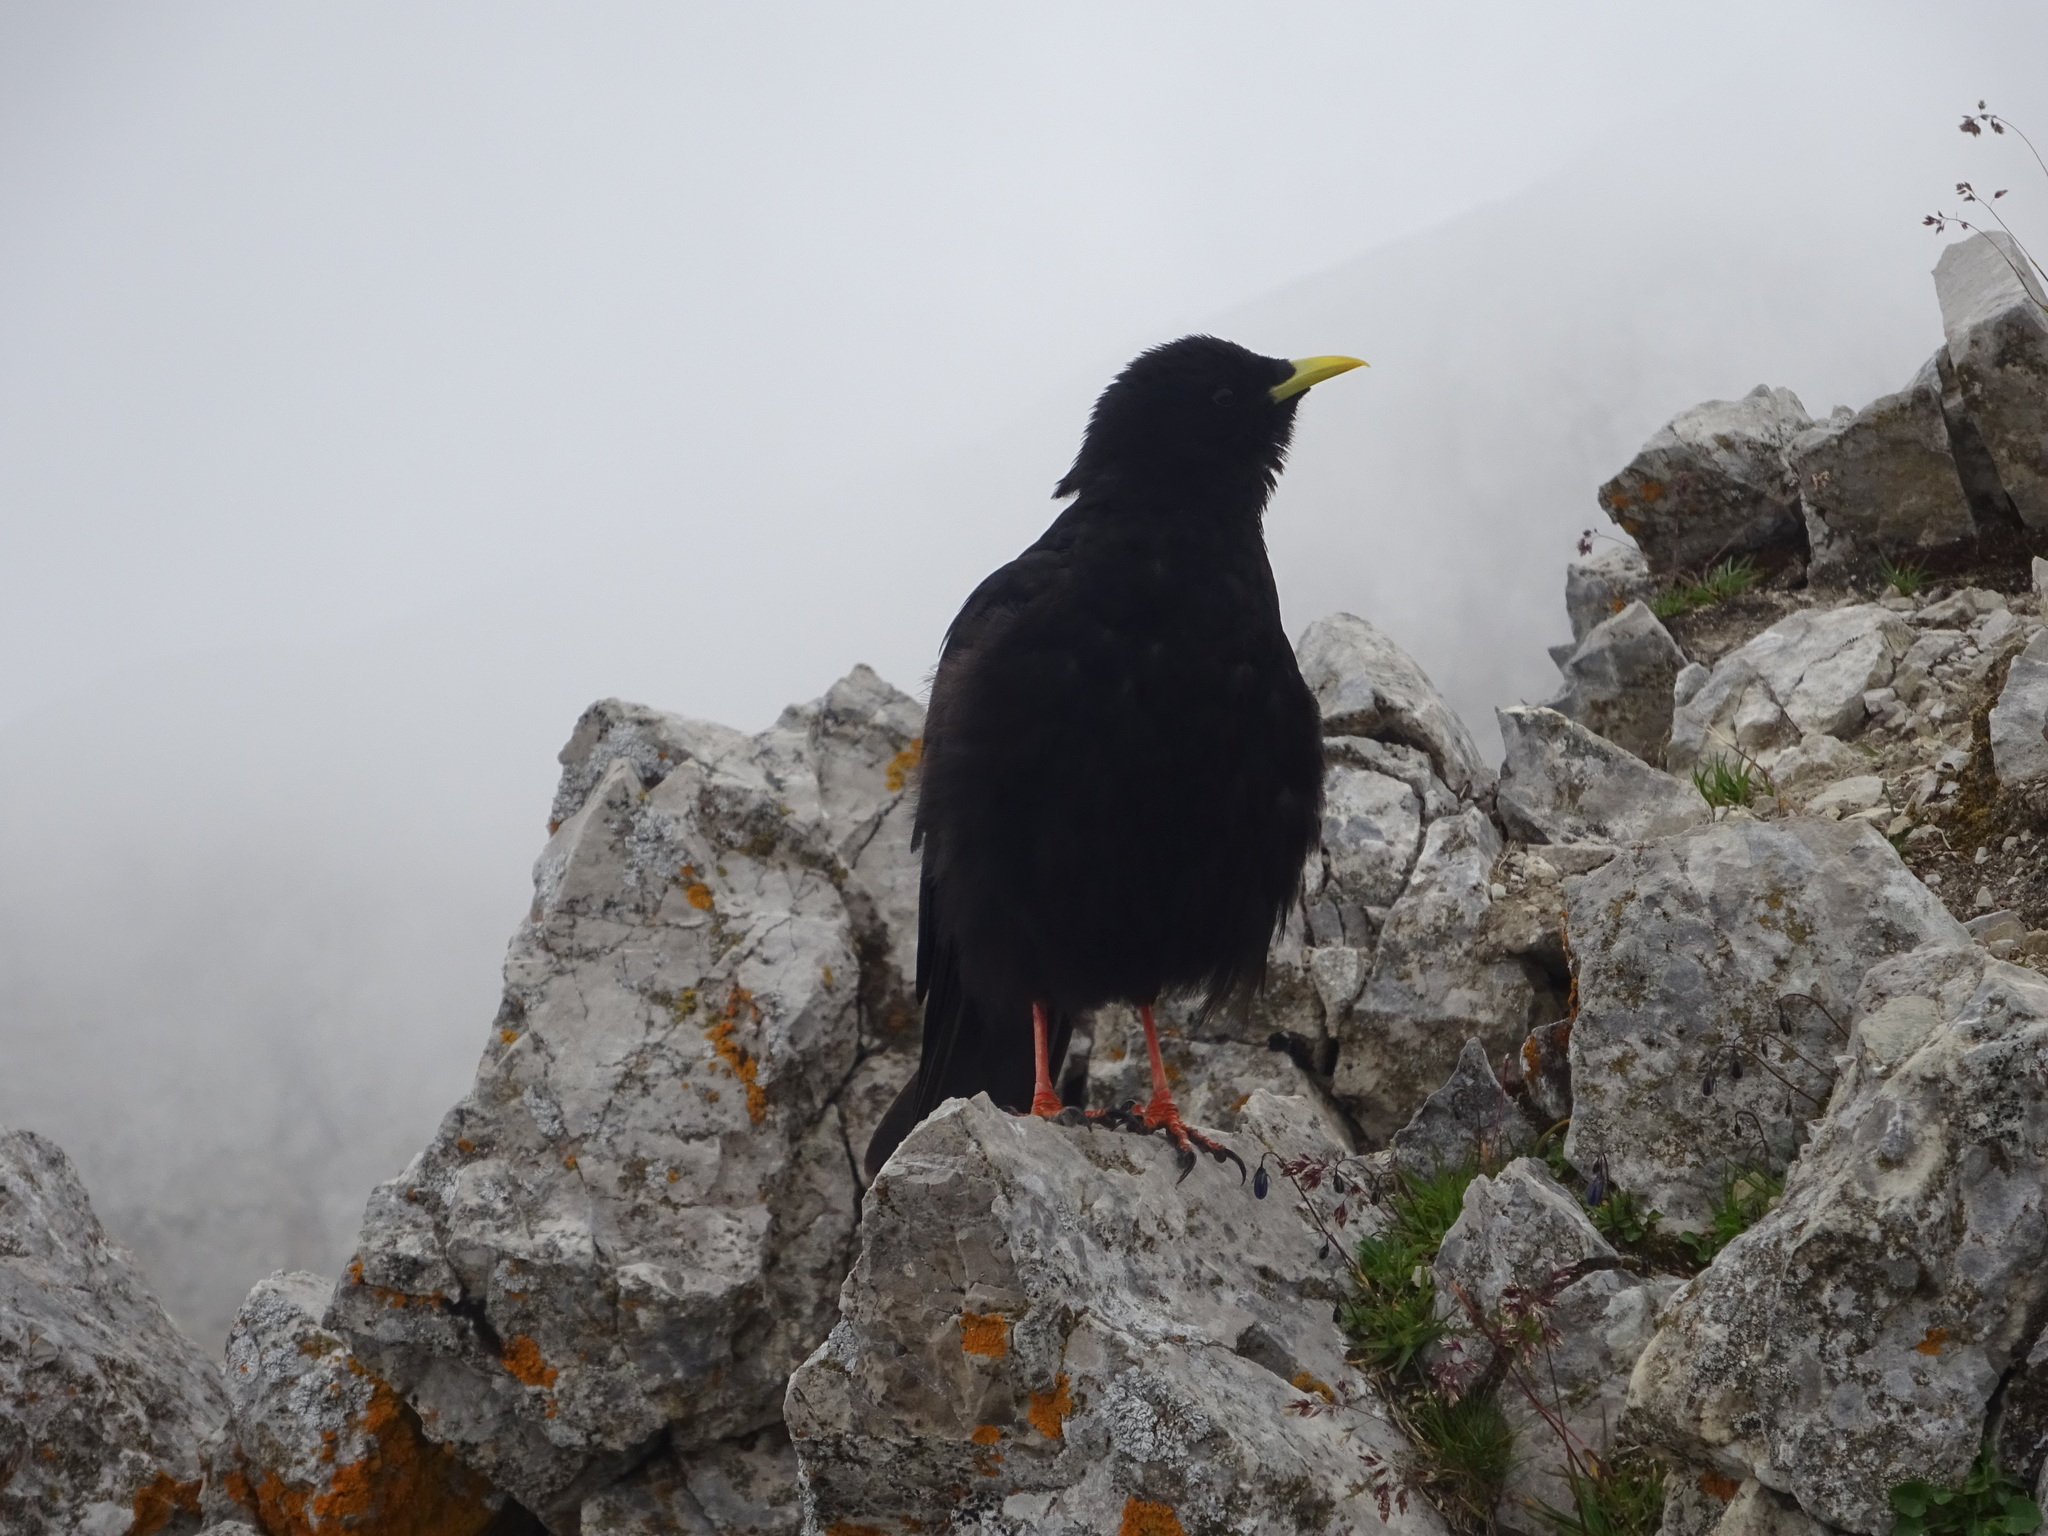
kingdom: Animalia
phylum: Chordata
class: Aves
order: Passeriformes
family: Corvidae
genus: Pyrrhocorax
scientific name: Pyrrhocorax graculus
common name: Alpine chough
